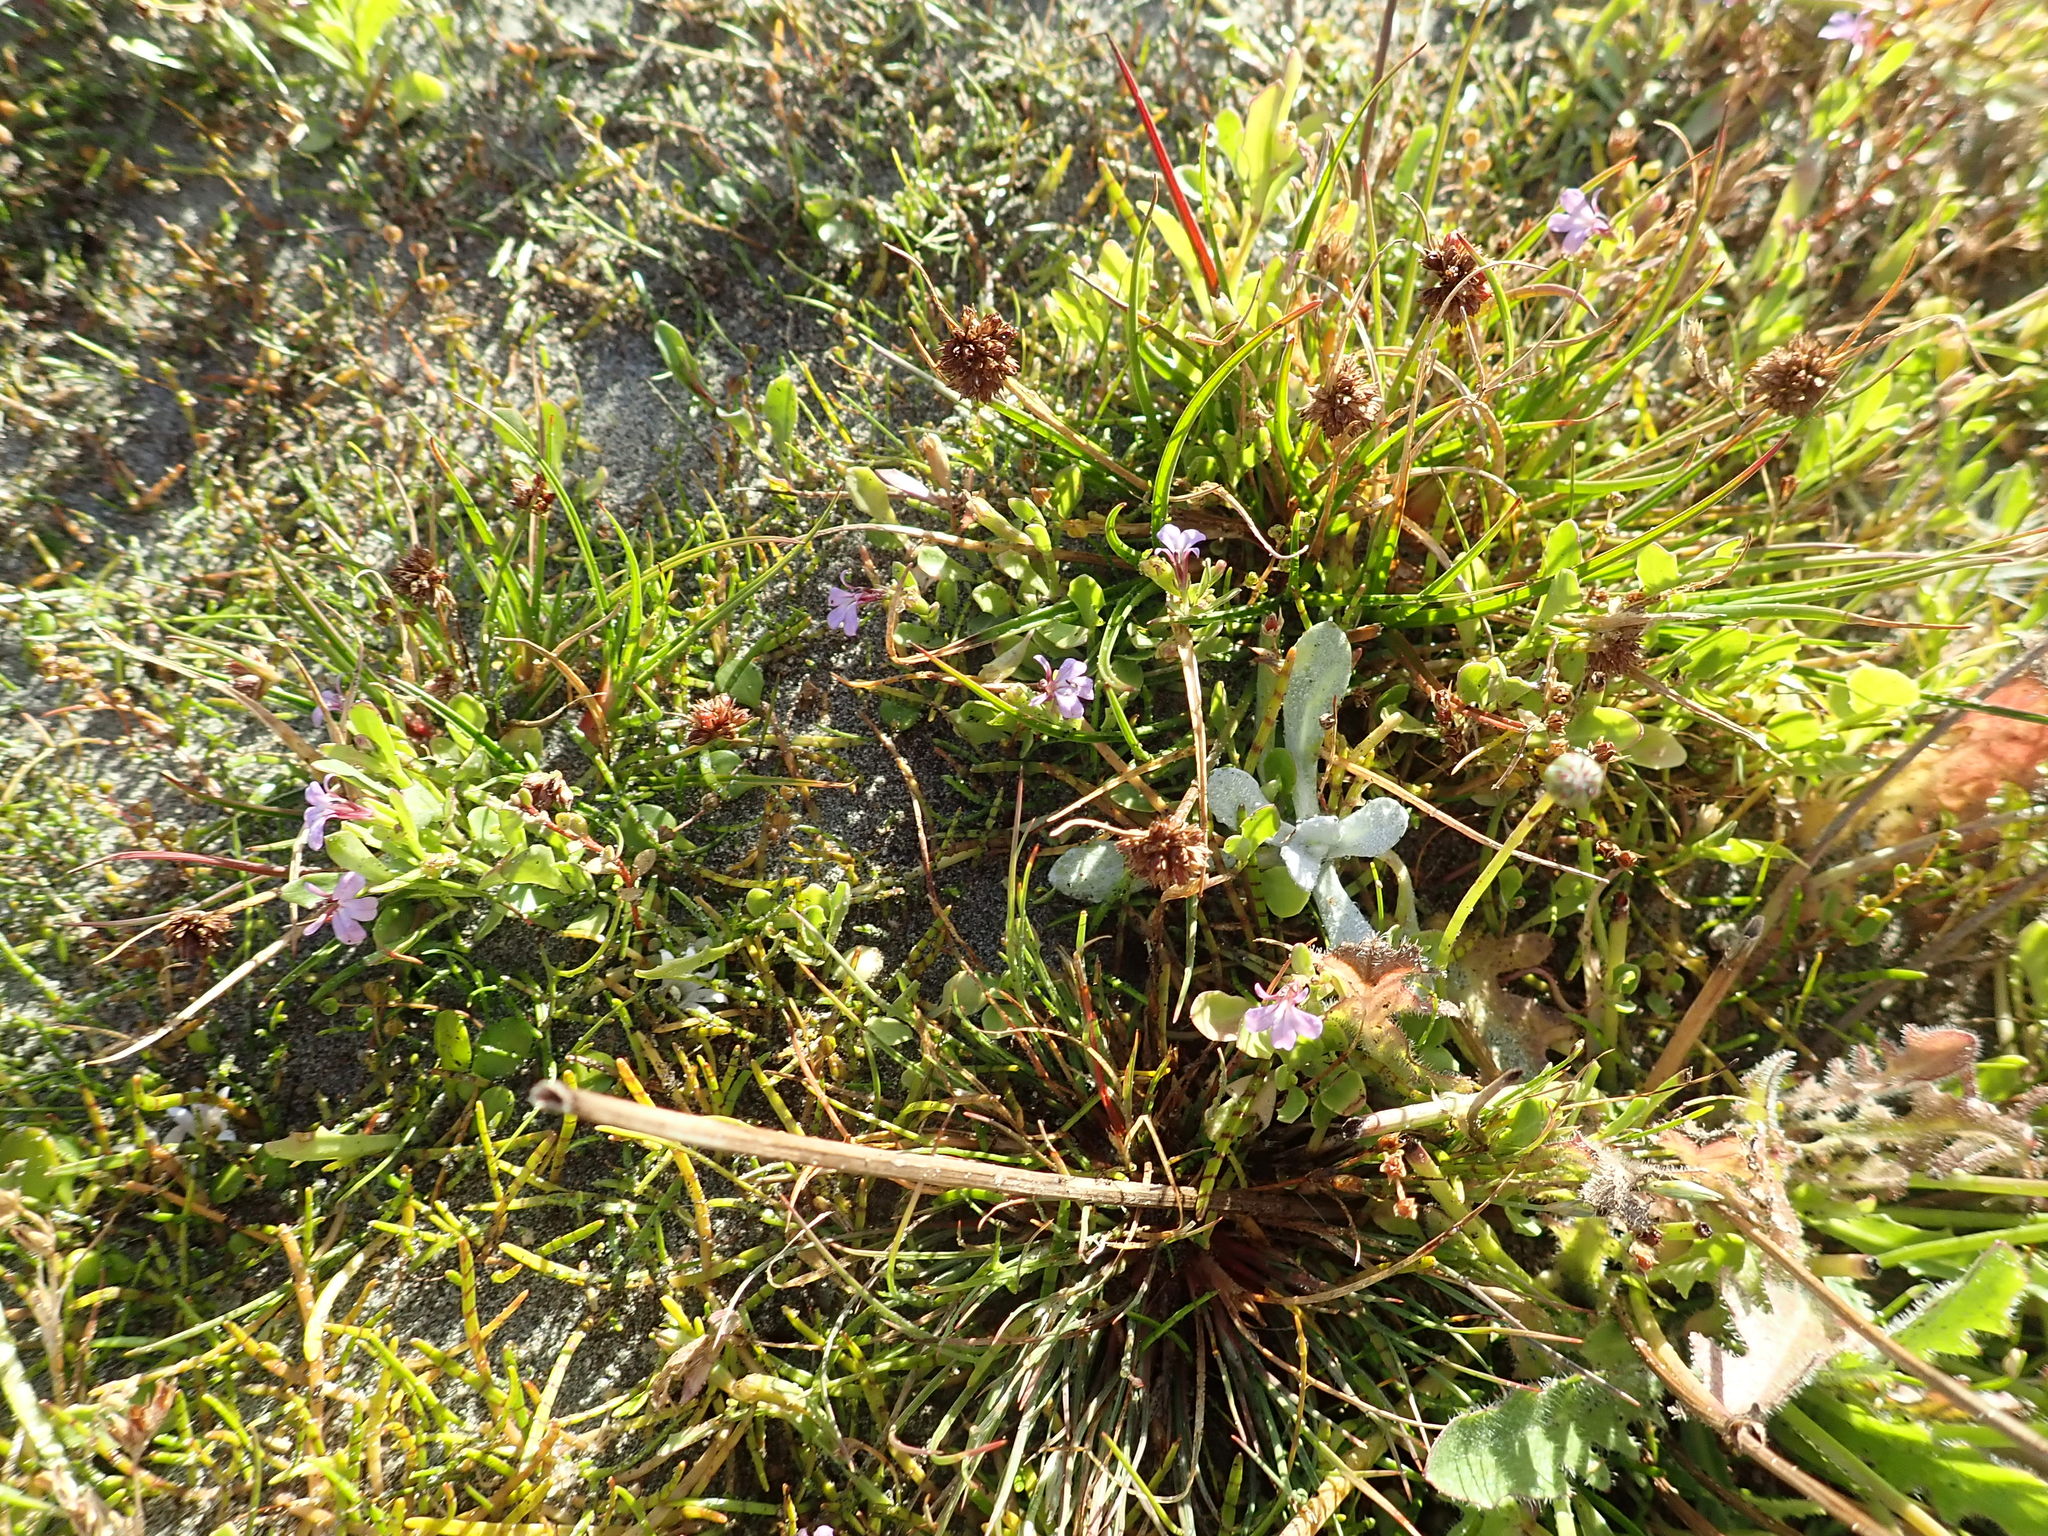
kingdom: Plantae
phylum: Tracheophyta
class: Magnoliopsida
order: Asterales
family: Campanulaceae
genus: Lobelia
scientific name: Lobelia anceps
